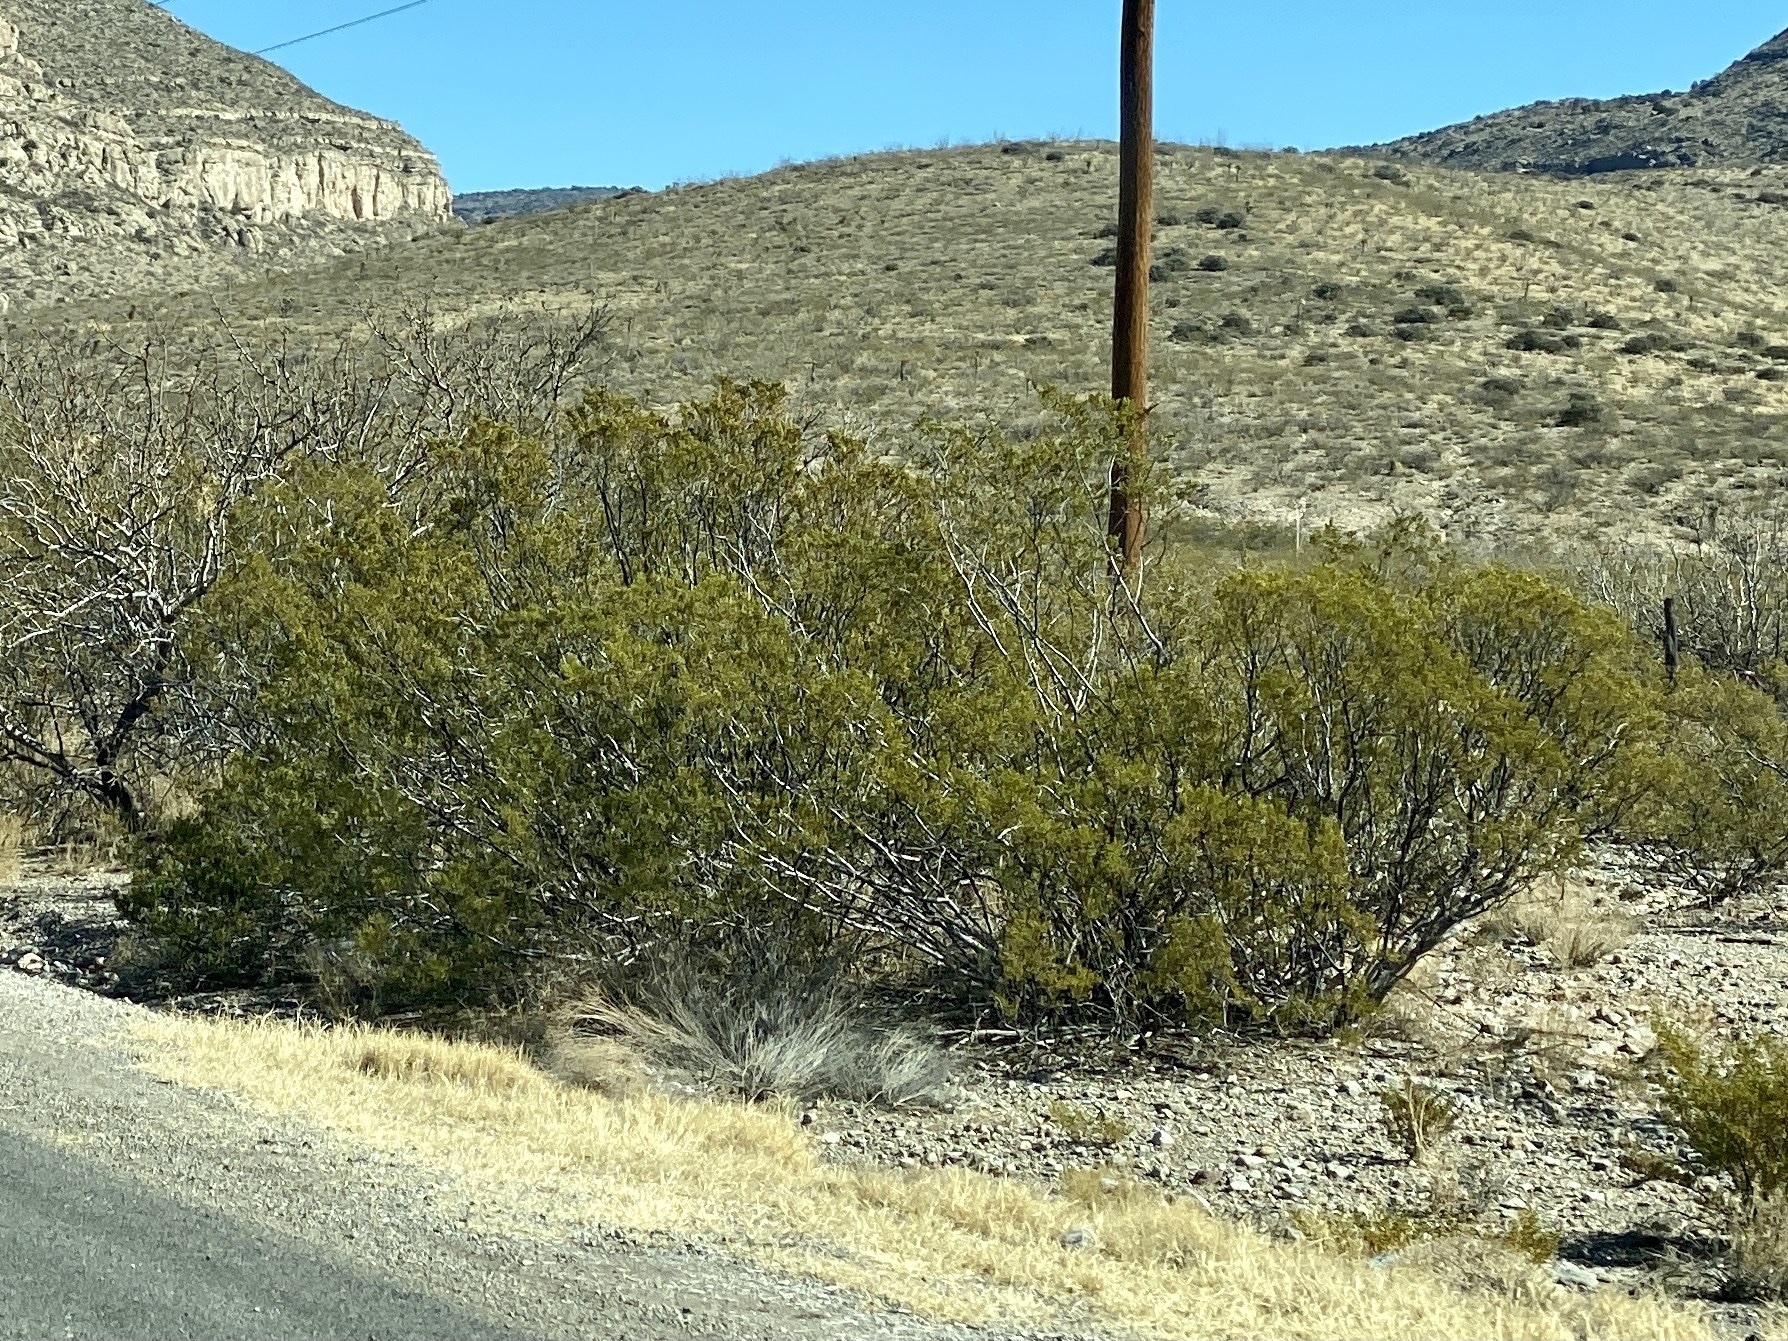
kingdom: Plantae
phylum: Tracheophyta
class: Magnoliopsida
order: Zygophyllales
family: Zygophyllaceae
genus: Larrea
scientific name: Larrea tridentata
